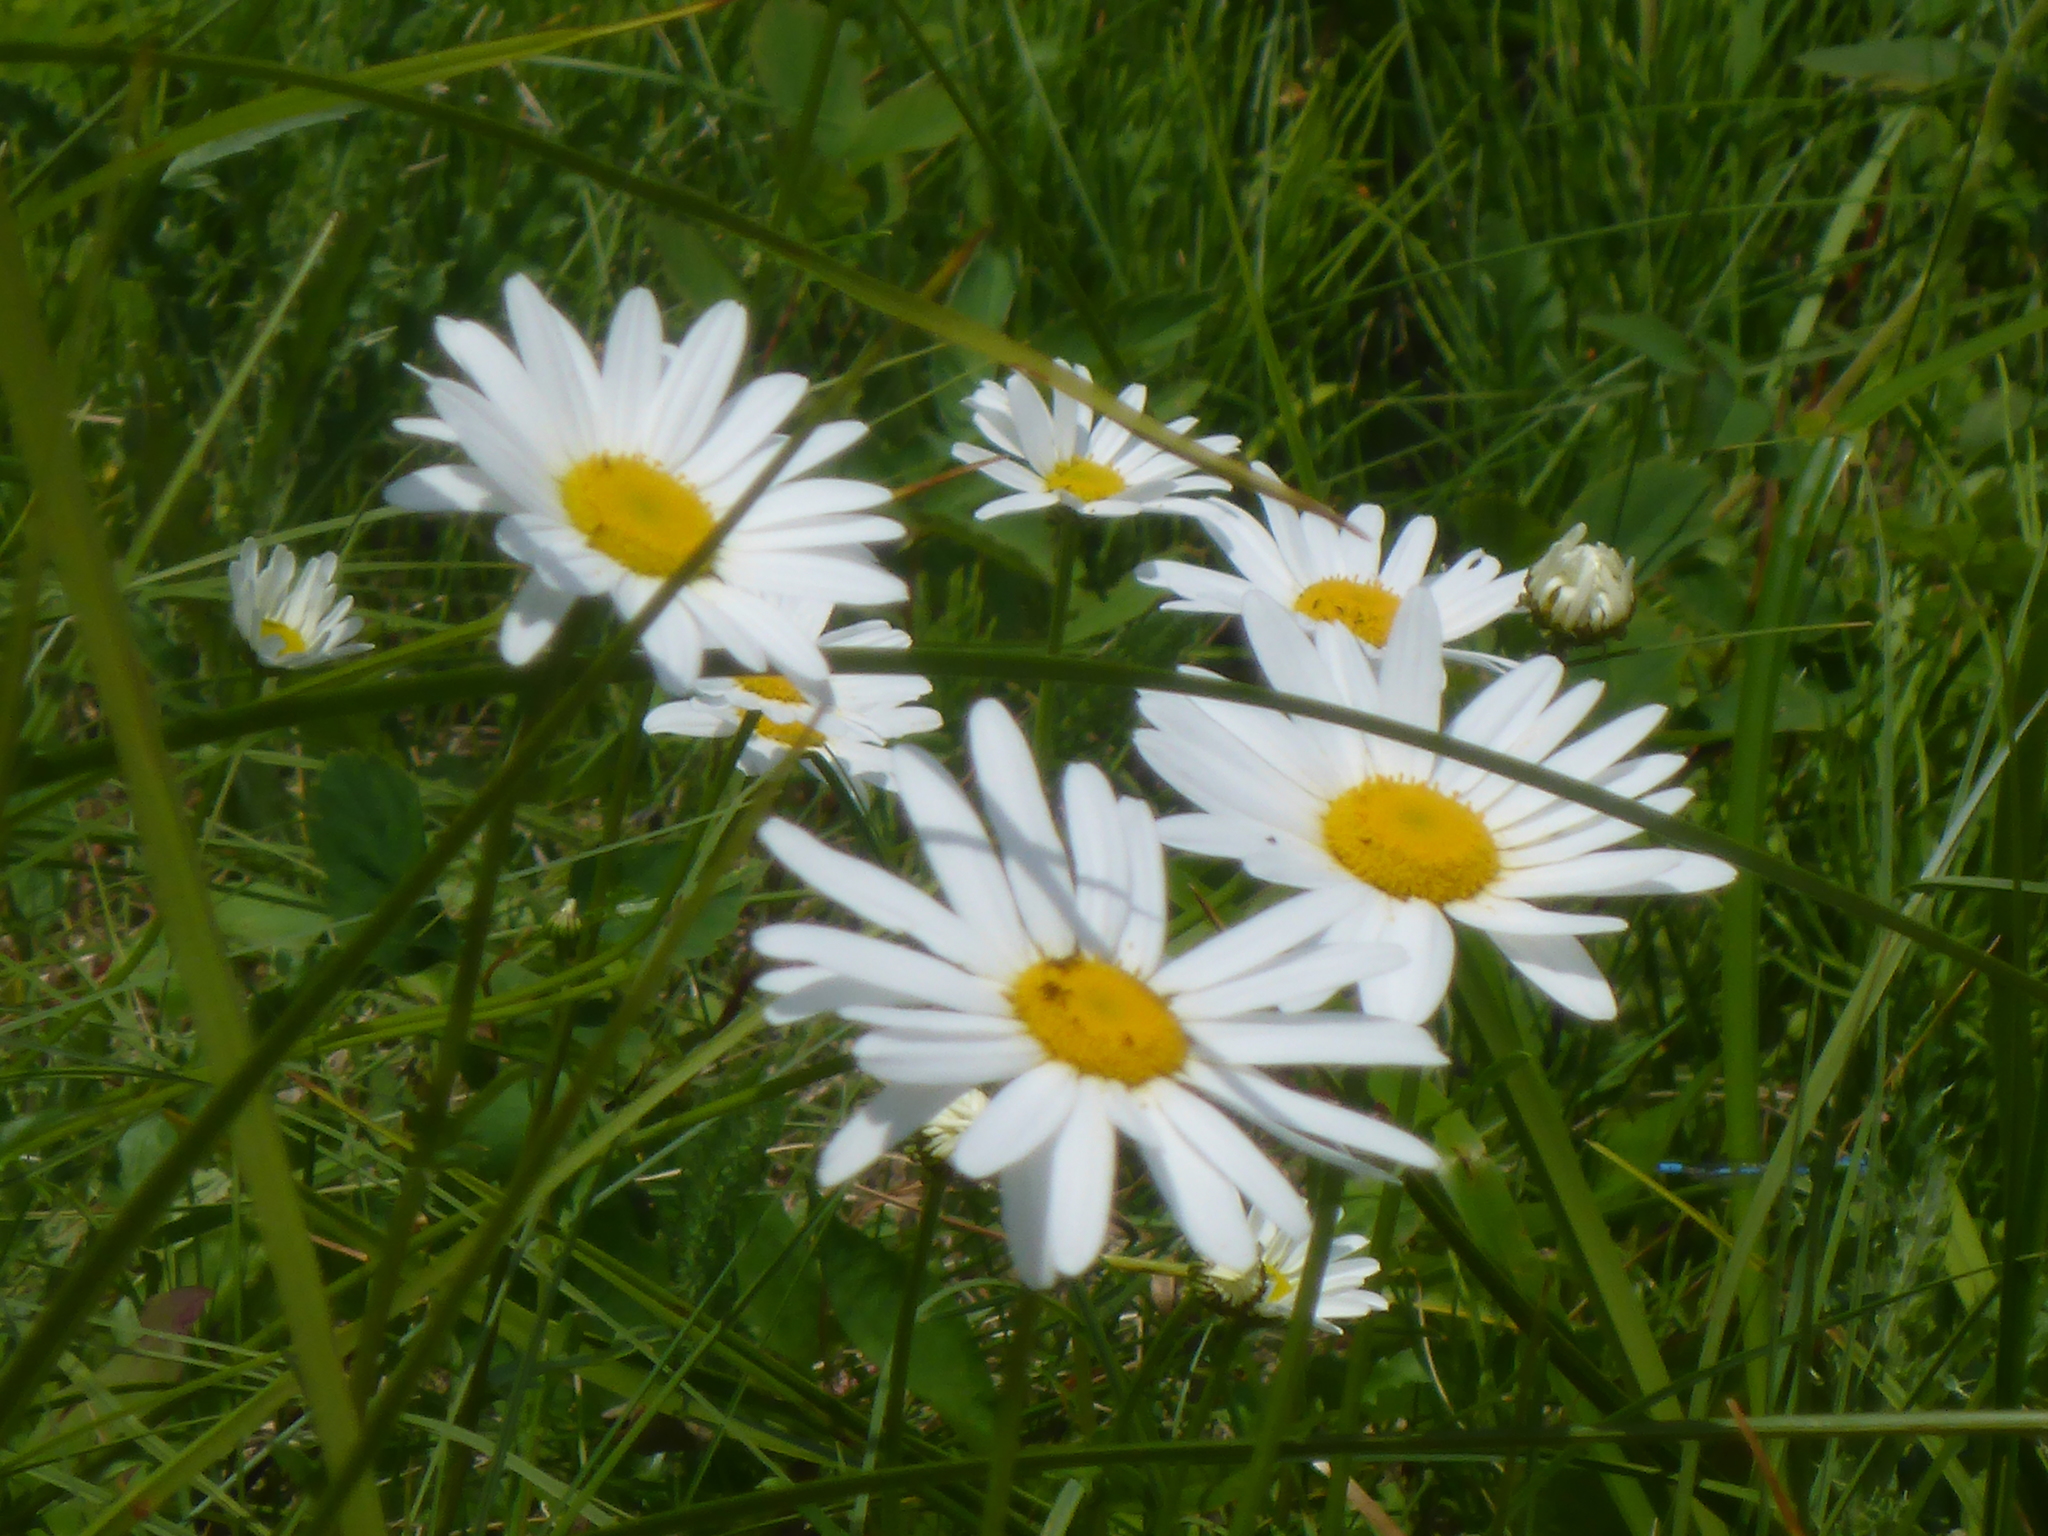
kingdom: Plantae
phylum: Tracheophyta
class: Magnoliopsida
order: Asterales
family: Asteraceae
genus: Leucanthemum
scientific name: Leucanthemum vulgare
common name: Oxeye daisy
